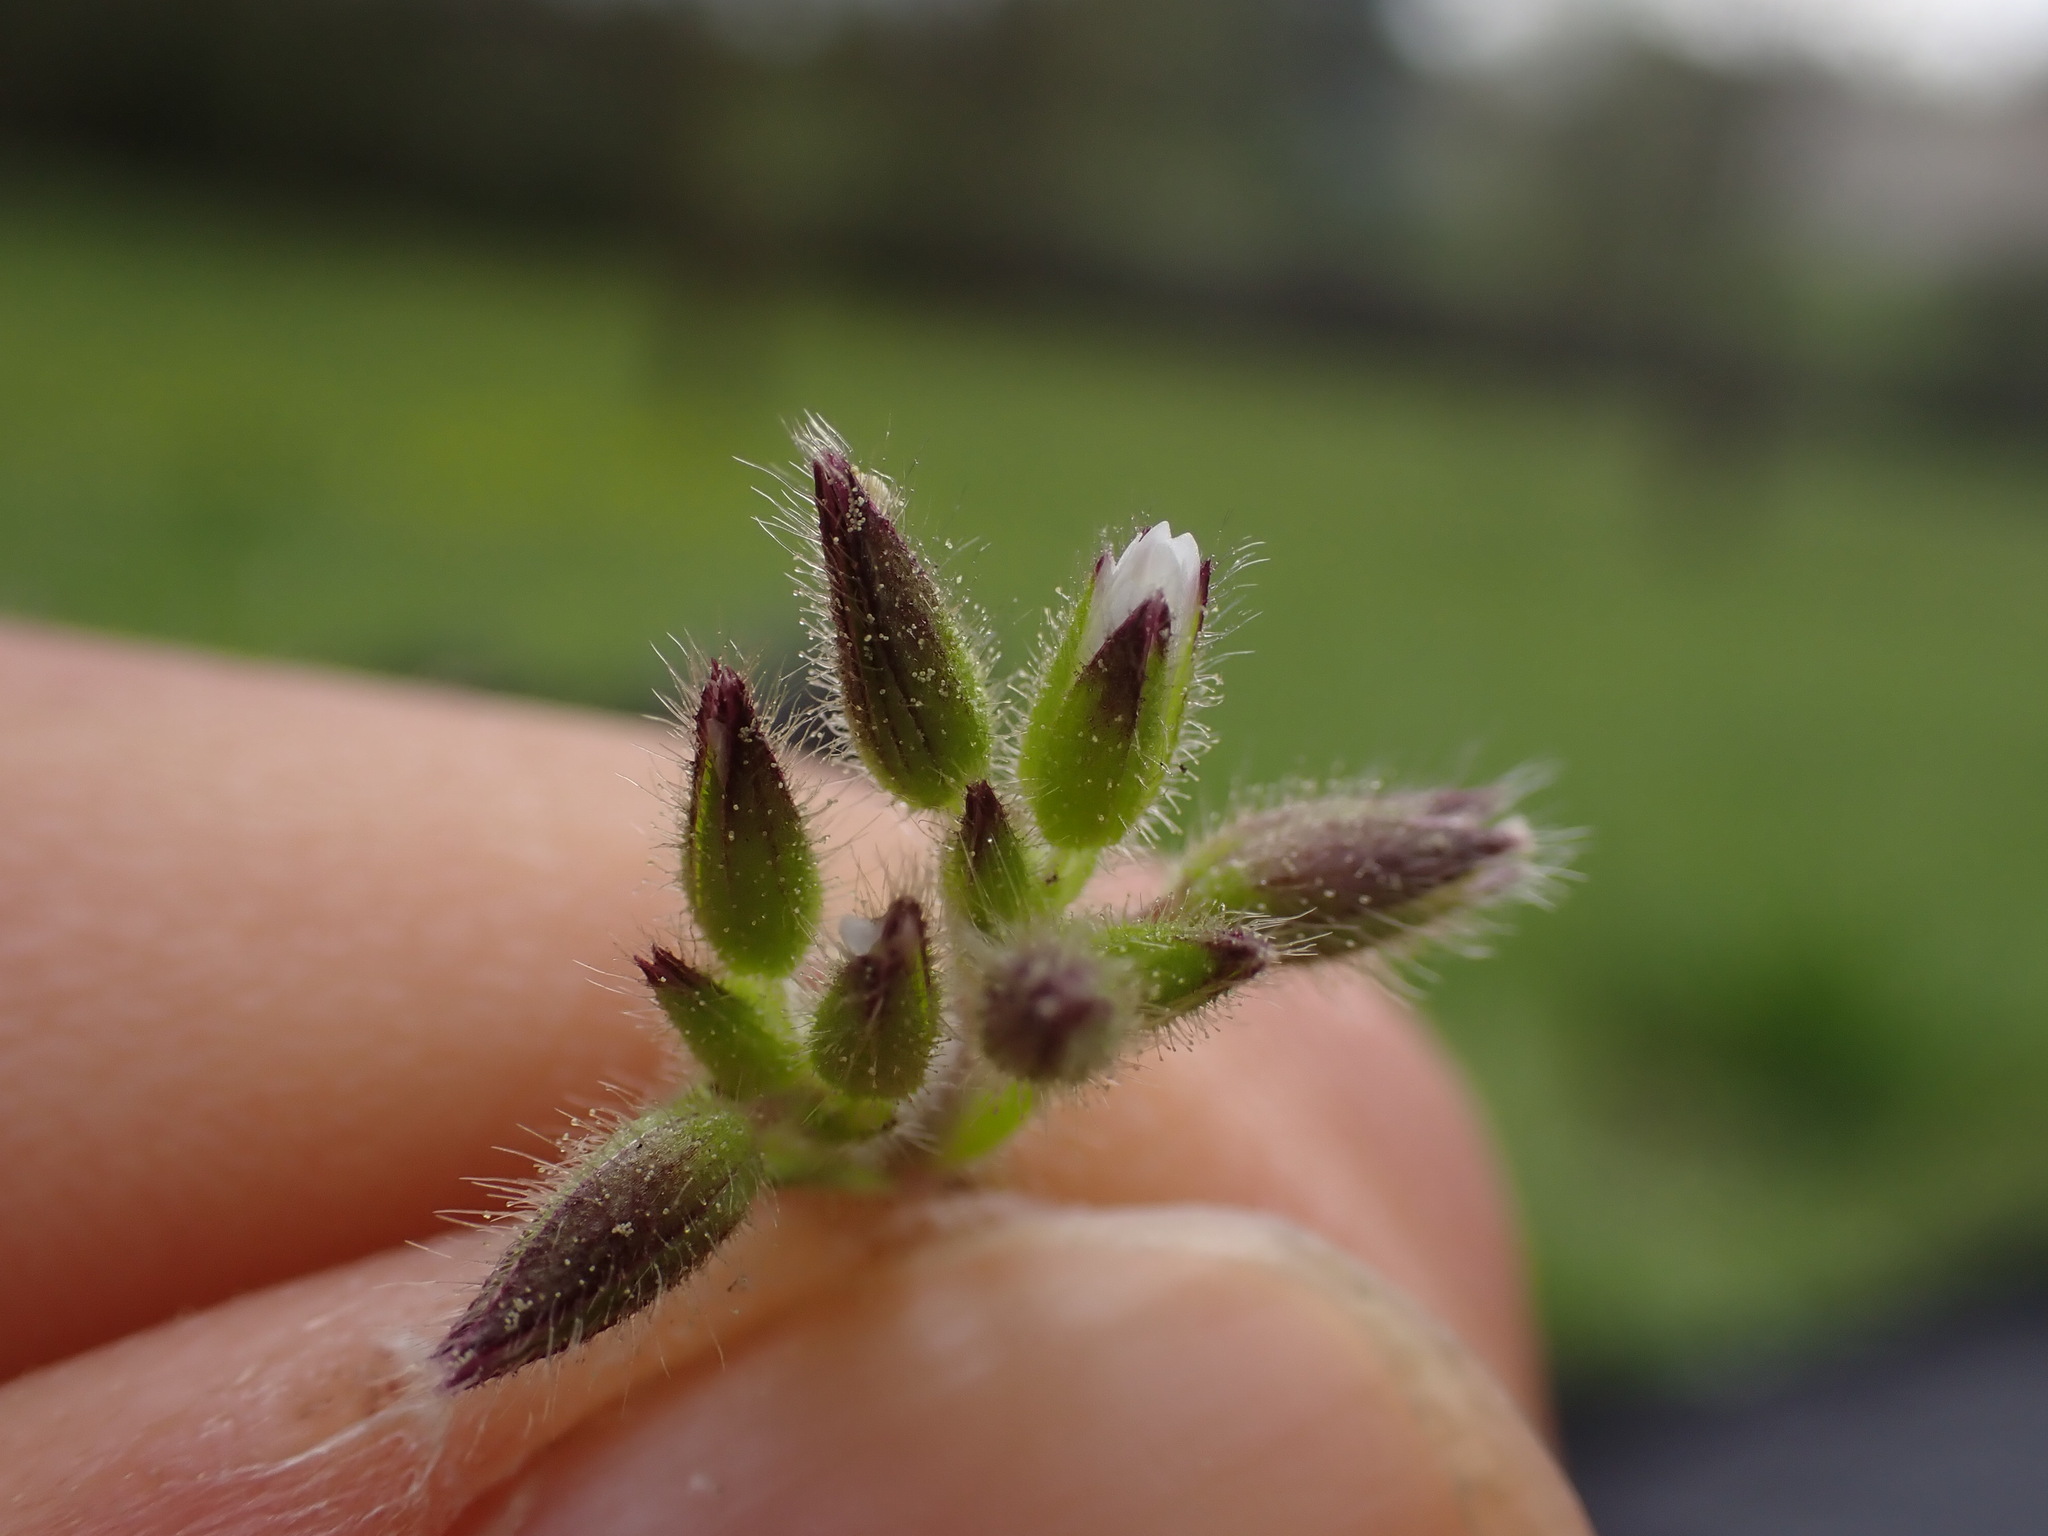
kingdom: Plantae
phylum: Tracheophyta
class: Magnoliopsida
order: Caryophyllales
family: Caryophyllaceae
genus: Cerastium
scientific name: Cerastium glomeratum
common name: Sticky chickweed
